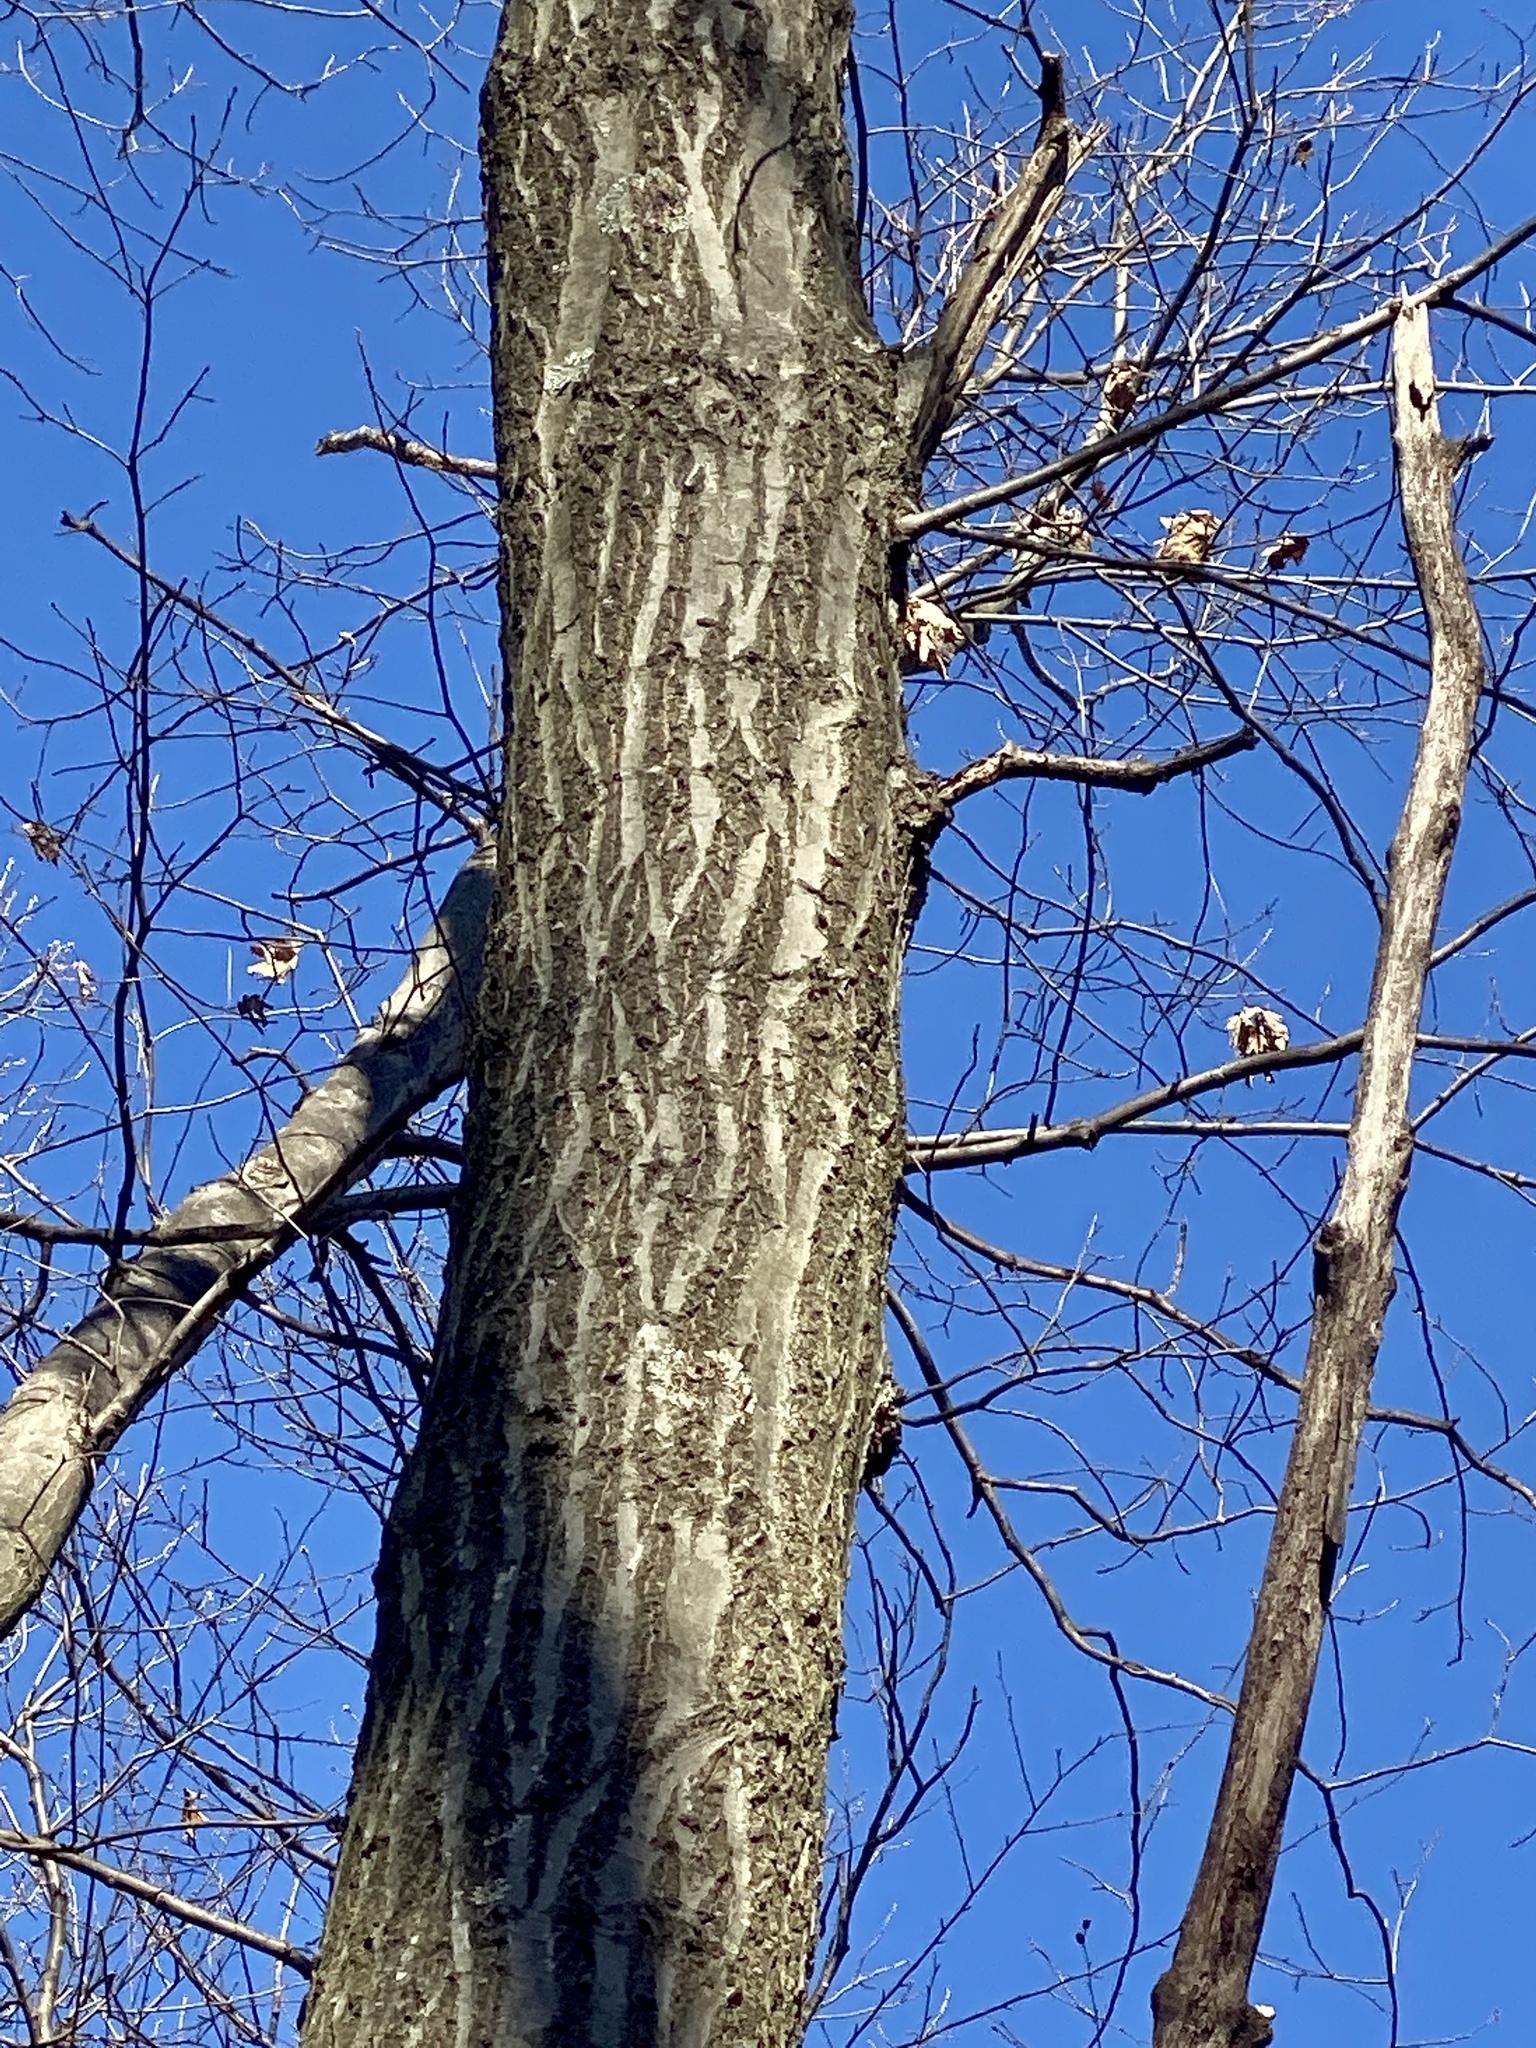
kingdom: Plantae
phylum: Tracheophyta
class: Magnoliopsida
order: Fagales
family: Fagaceae
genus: Quercus
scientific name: Quercus rubra
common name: Red oak
